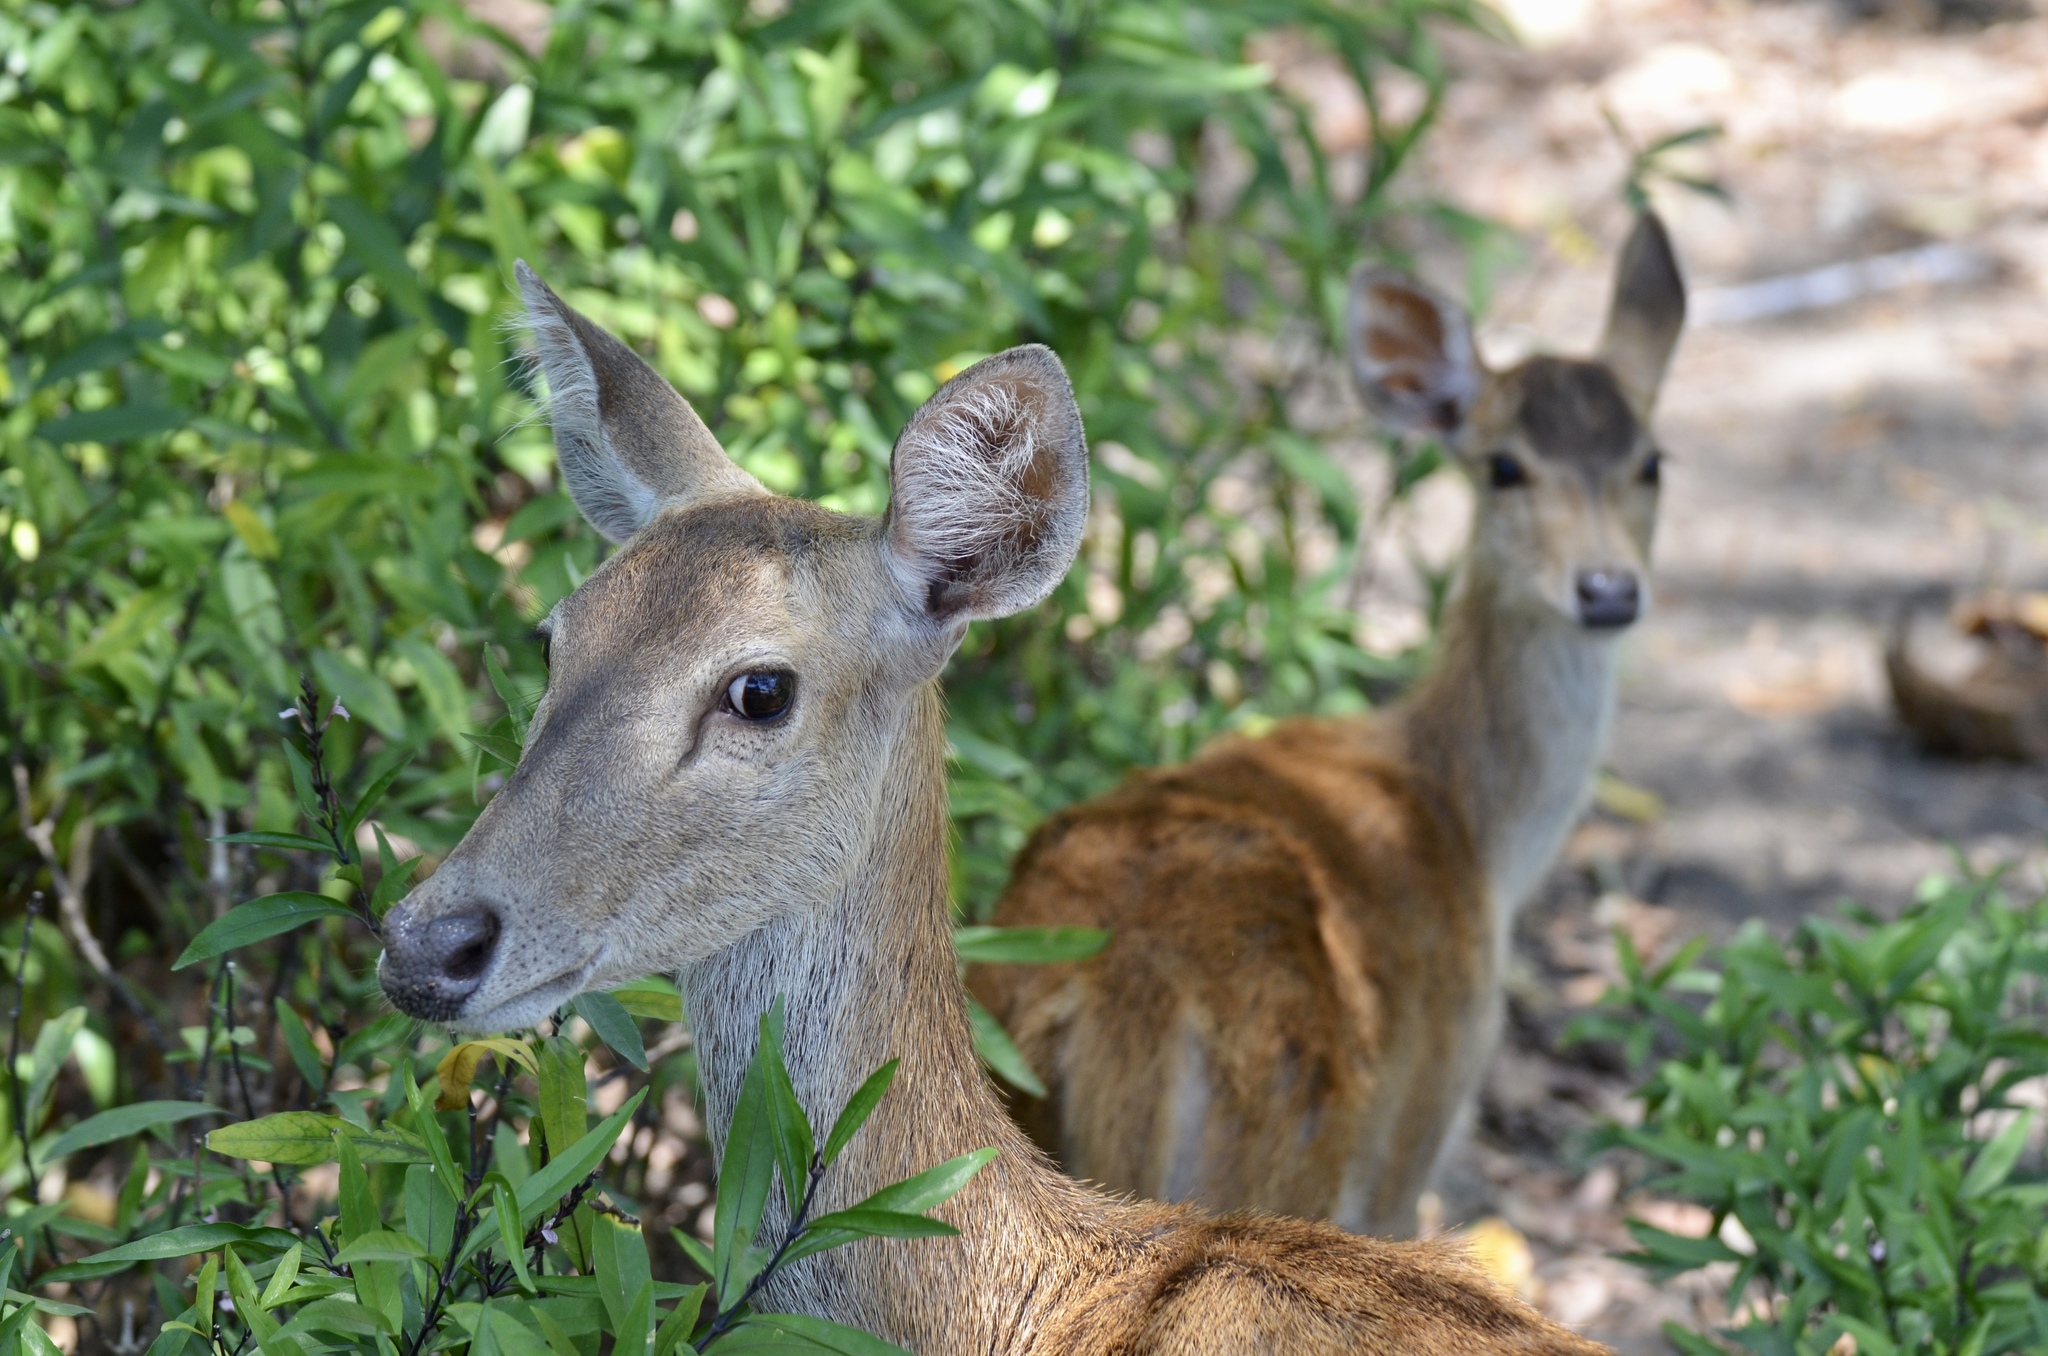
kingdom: Animalia
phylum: Chordata
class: Mammalia
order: Artiodactyla
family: Cervidae
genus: Rusa
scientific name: Rusa timorensis
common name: Javan rusa
